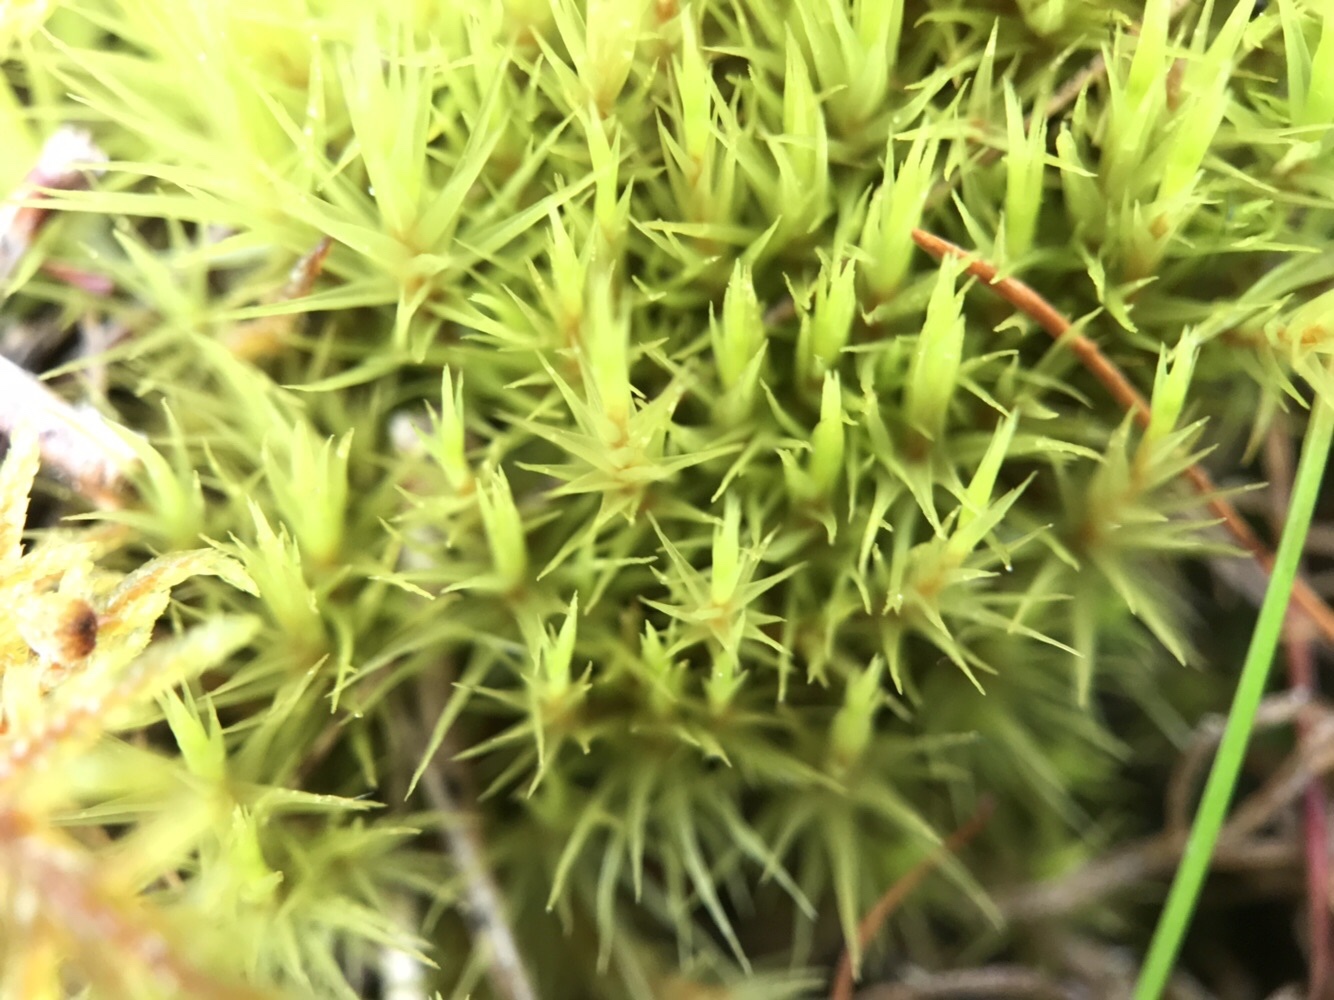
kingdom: Plantae
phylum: Bryophyta
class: Bryopsida
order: Dicranales
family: Leucobryaceae
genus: Campylopus
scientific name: Campylopus flexuosus
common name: Rusty swan-neck moss
